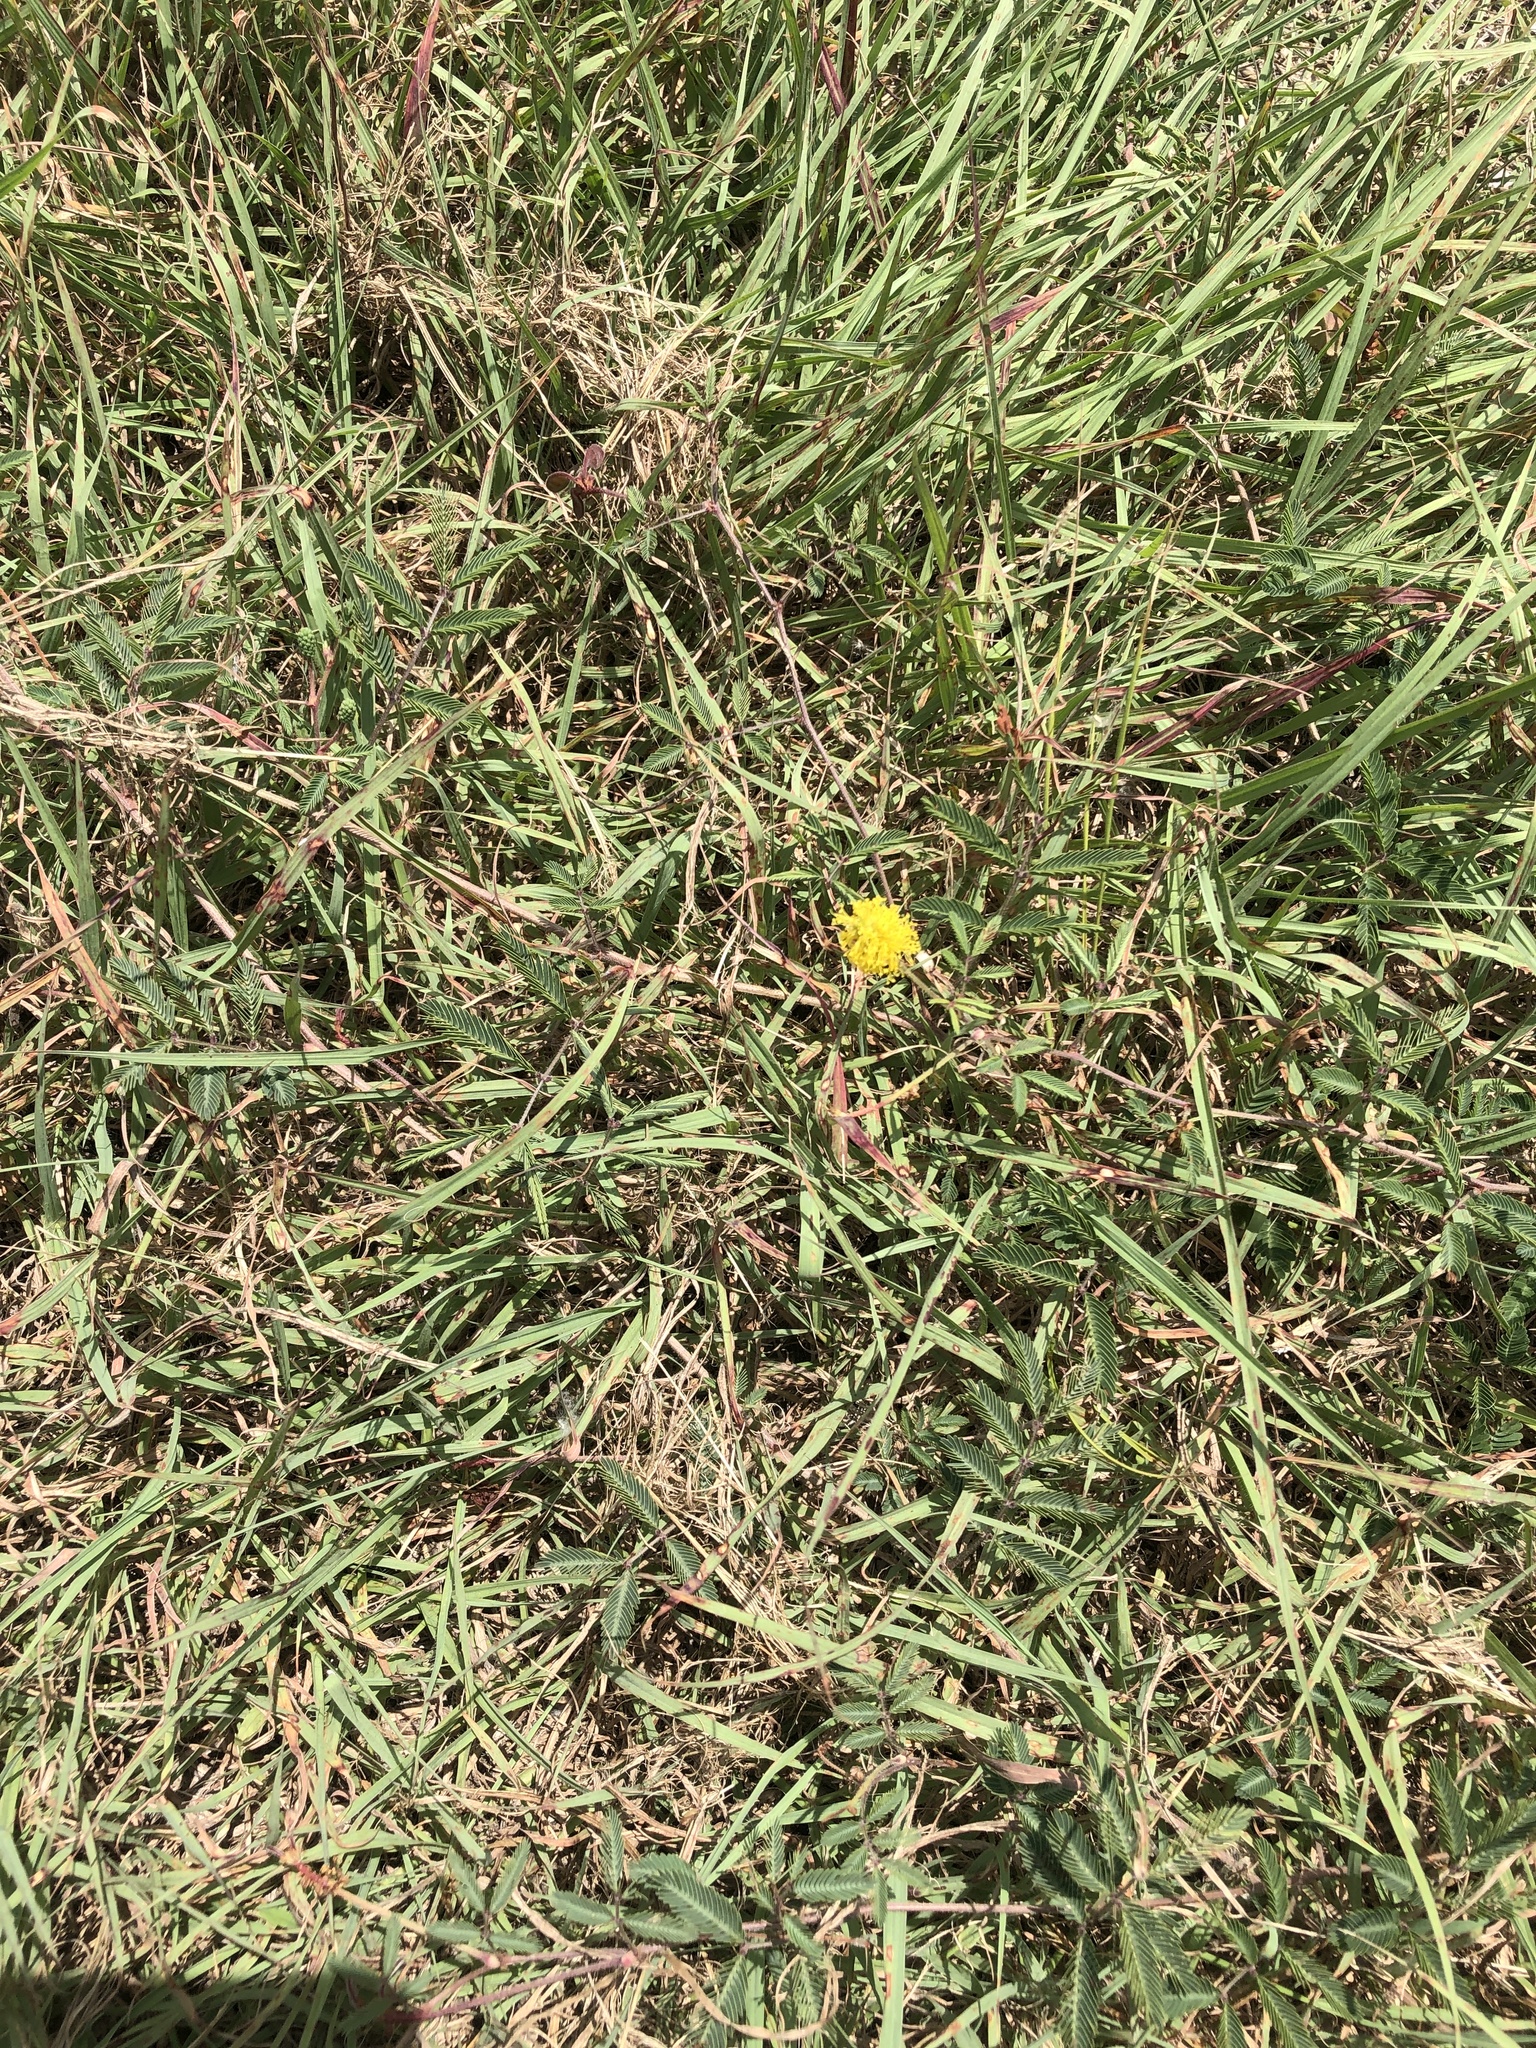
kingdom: Plantae
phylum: Tracheophyta
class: Magnoliopsida
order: Fabales
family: Fabaceae
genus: Neptunia
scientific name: Neptunia lutea
